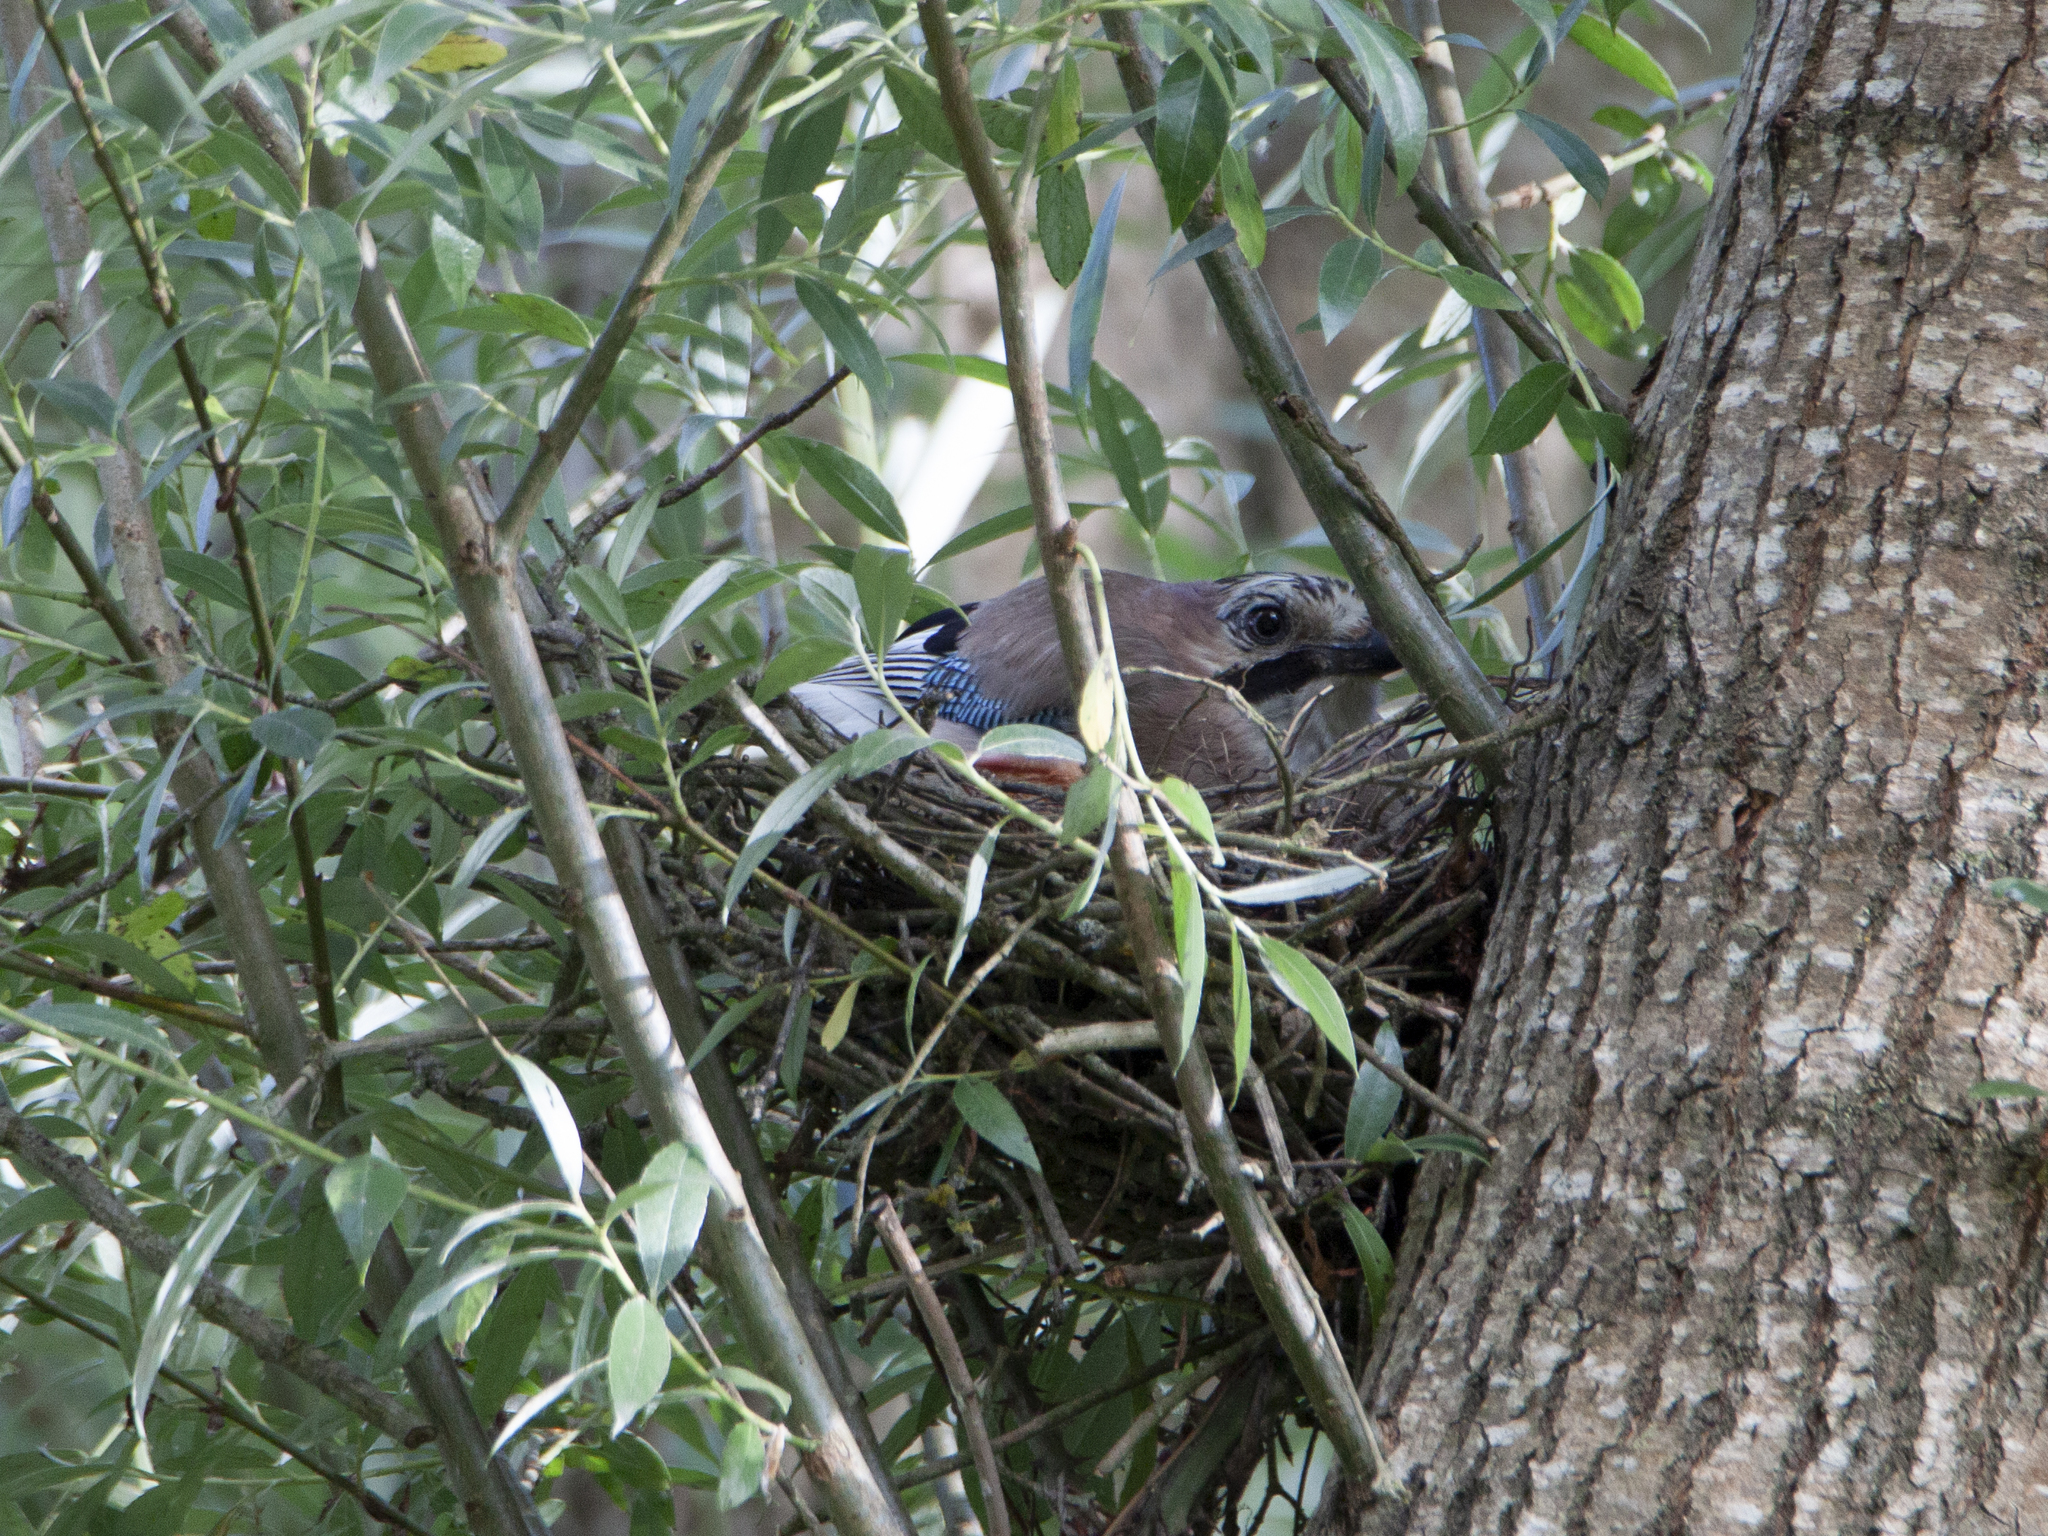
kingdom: Animalia
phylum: Chordata
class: Aves
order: Passeriformes
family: Corvidae
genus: Garrulus
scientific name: Garrulus glandarius
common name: Eurasian jay
